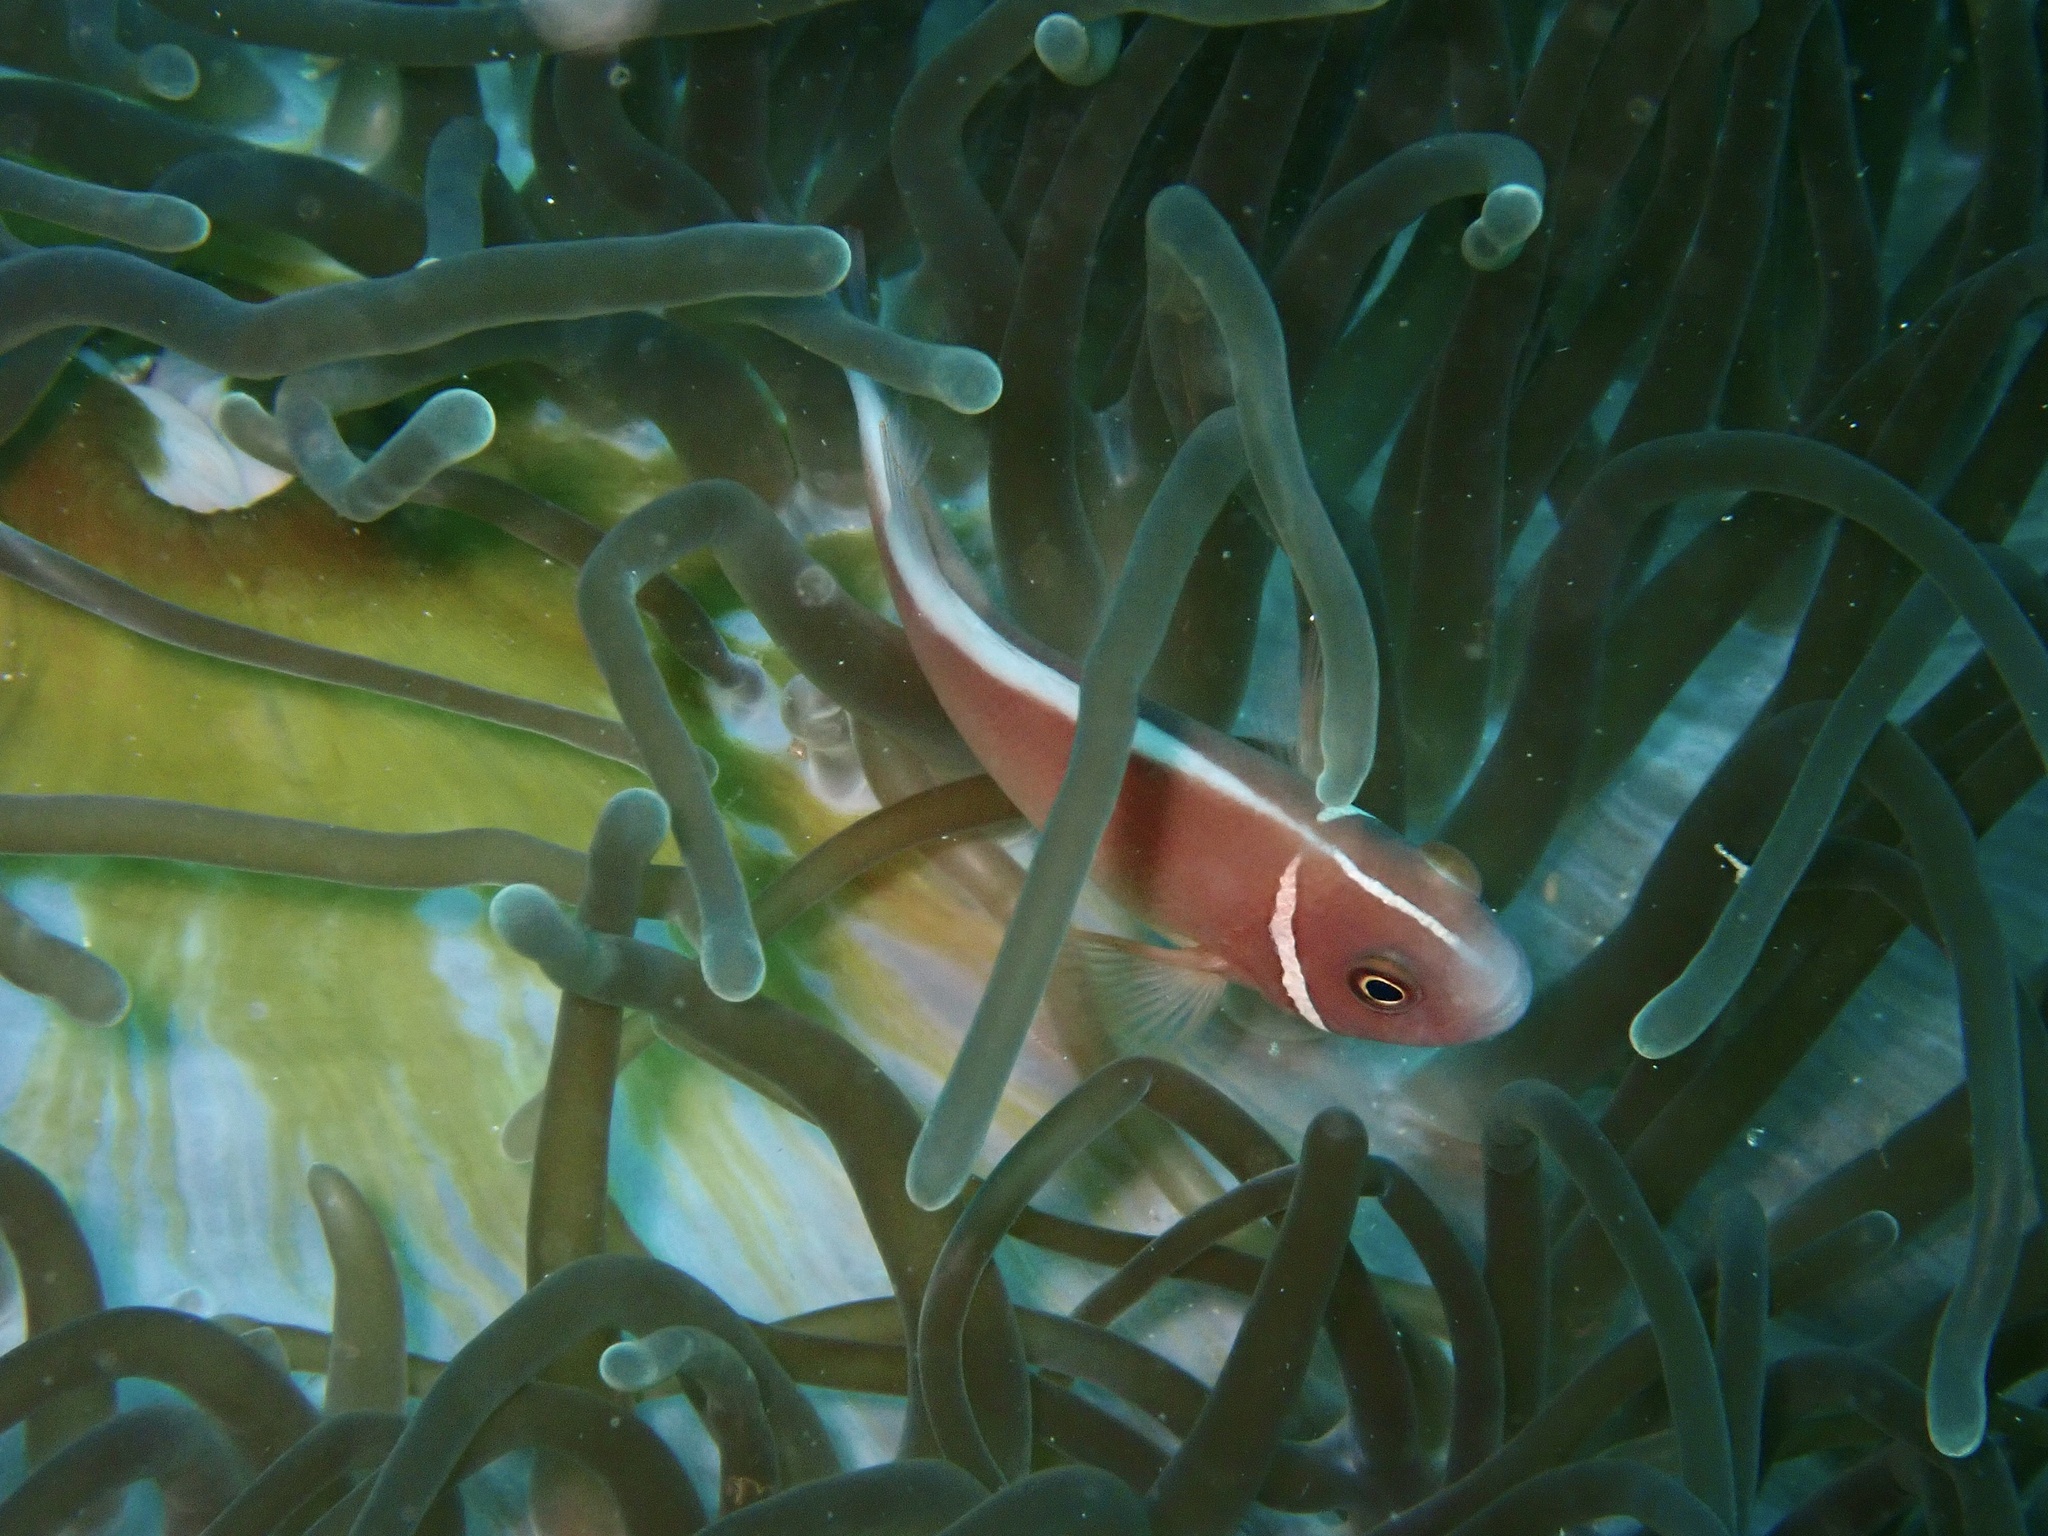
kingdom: Animalia
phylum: Chordata
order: Perciformes
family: Pomacentridae
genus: Amphiprion
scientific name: Amphiprion perideraion
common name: Pink anemonefish
